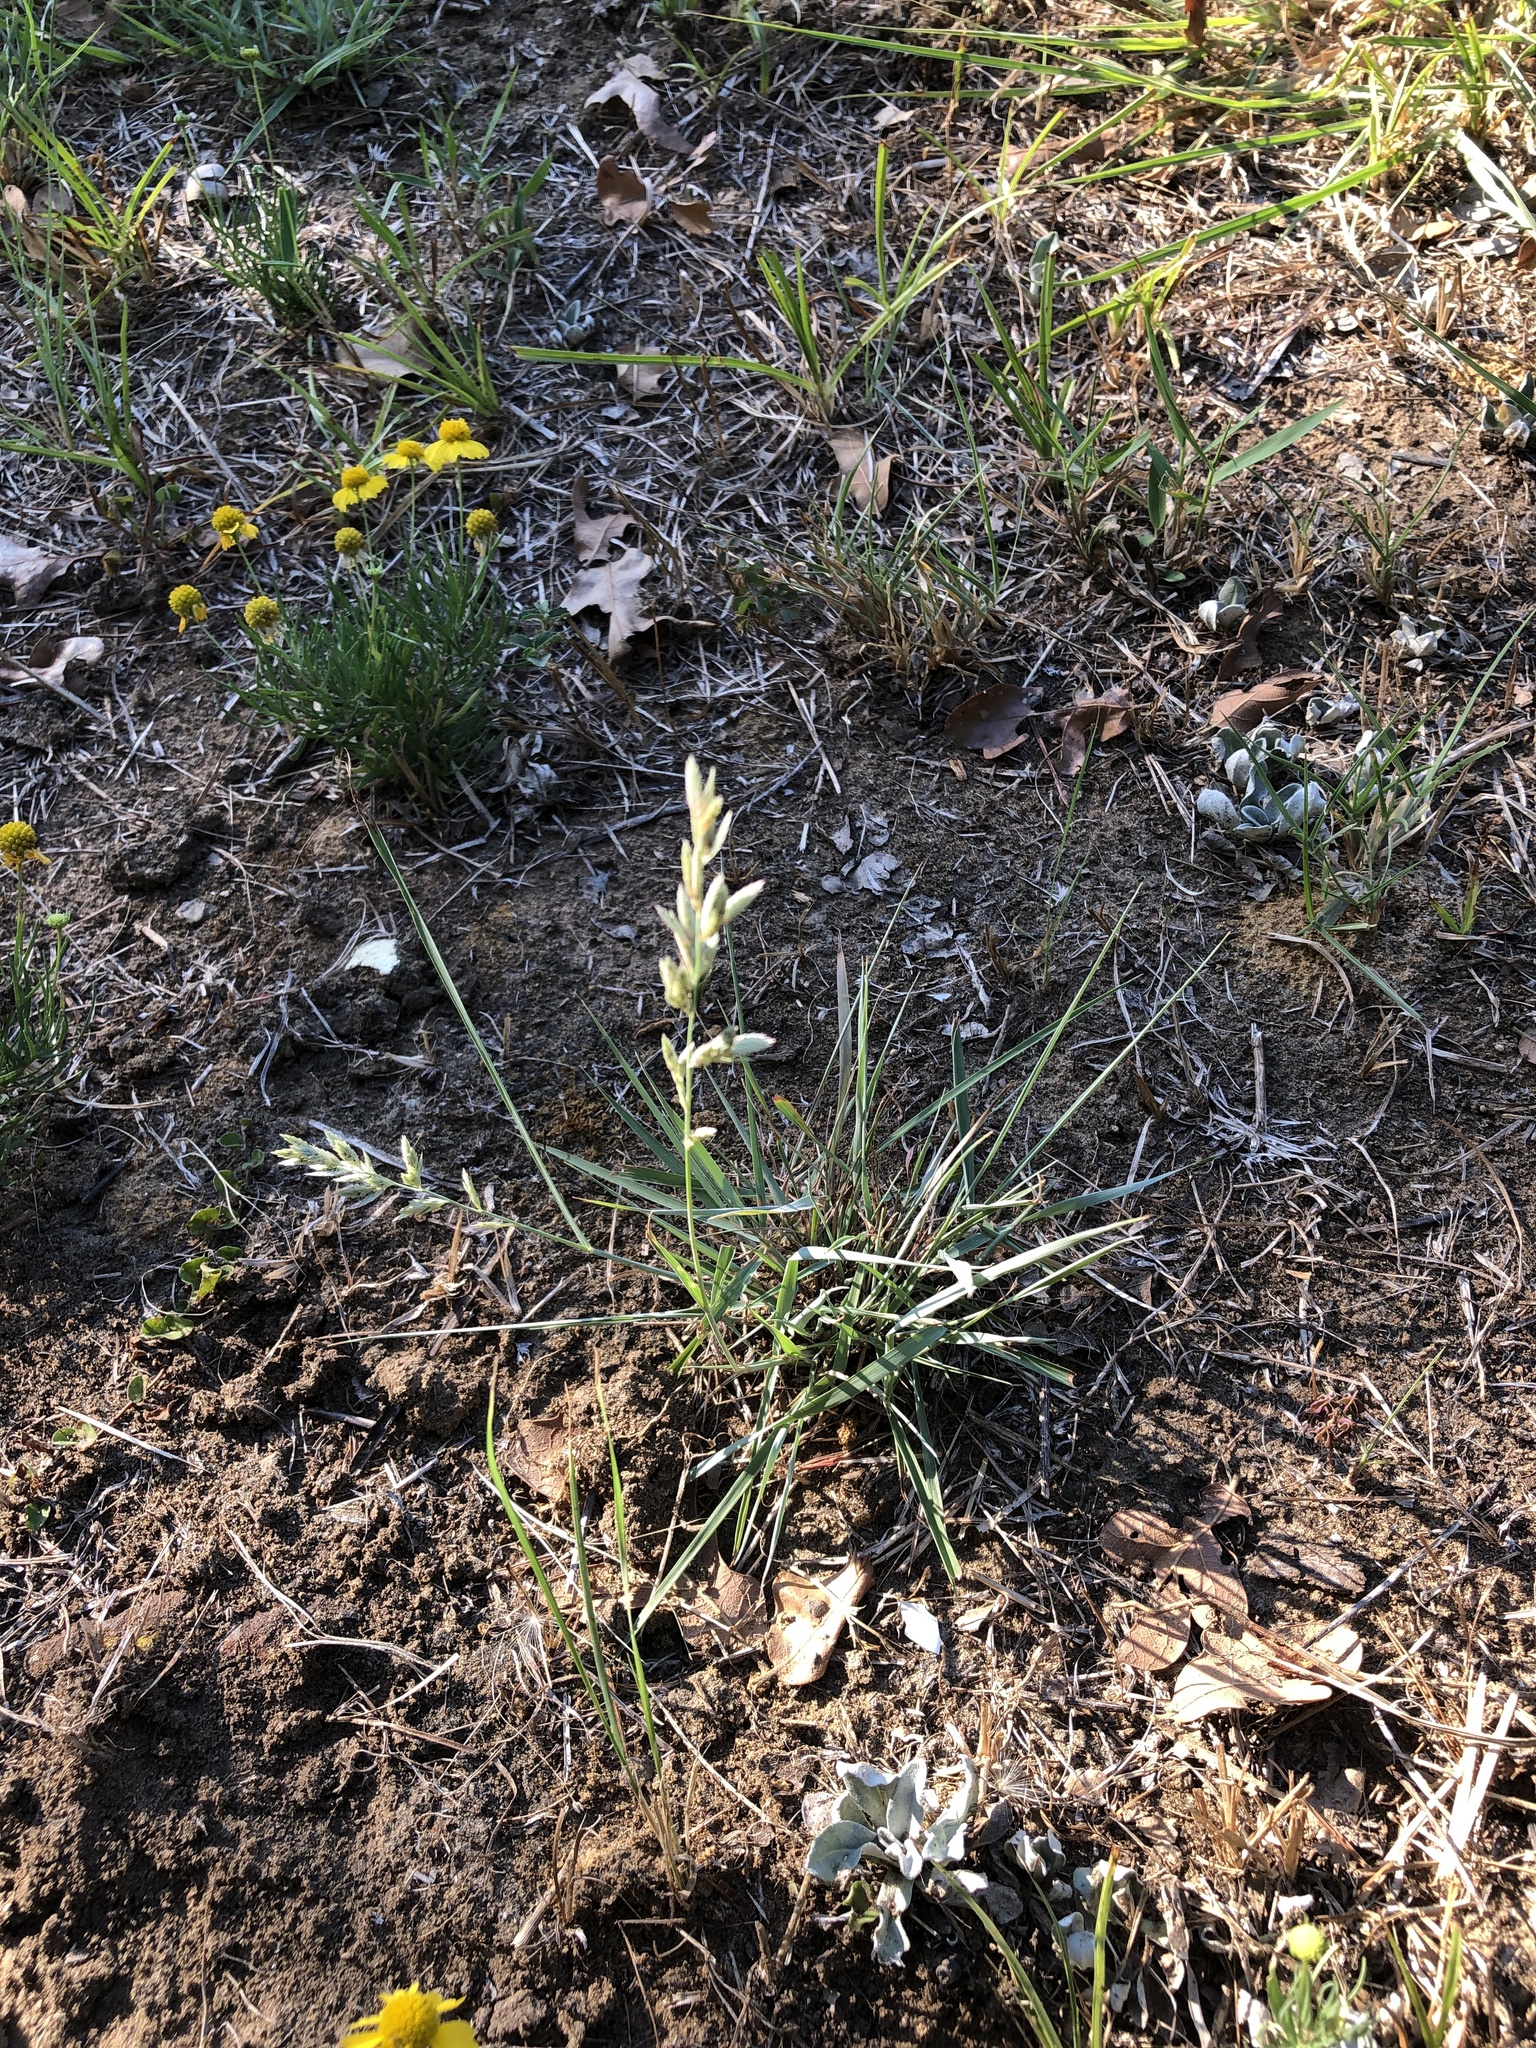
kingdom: Plantae
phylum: Tracheophyta
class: Liliopsida
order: Poales
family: Poaceae
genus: Eragrostis
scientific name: Eragrostis secundiflora
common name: Red love grass
